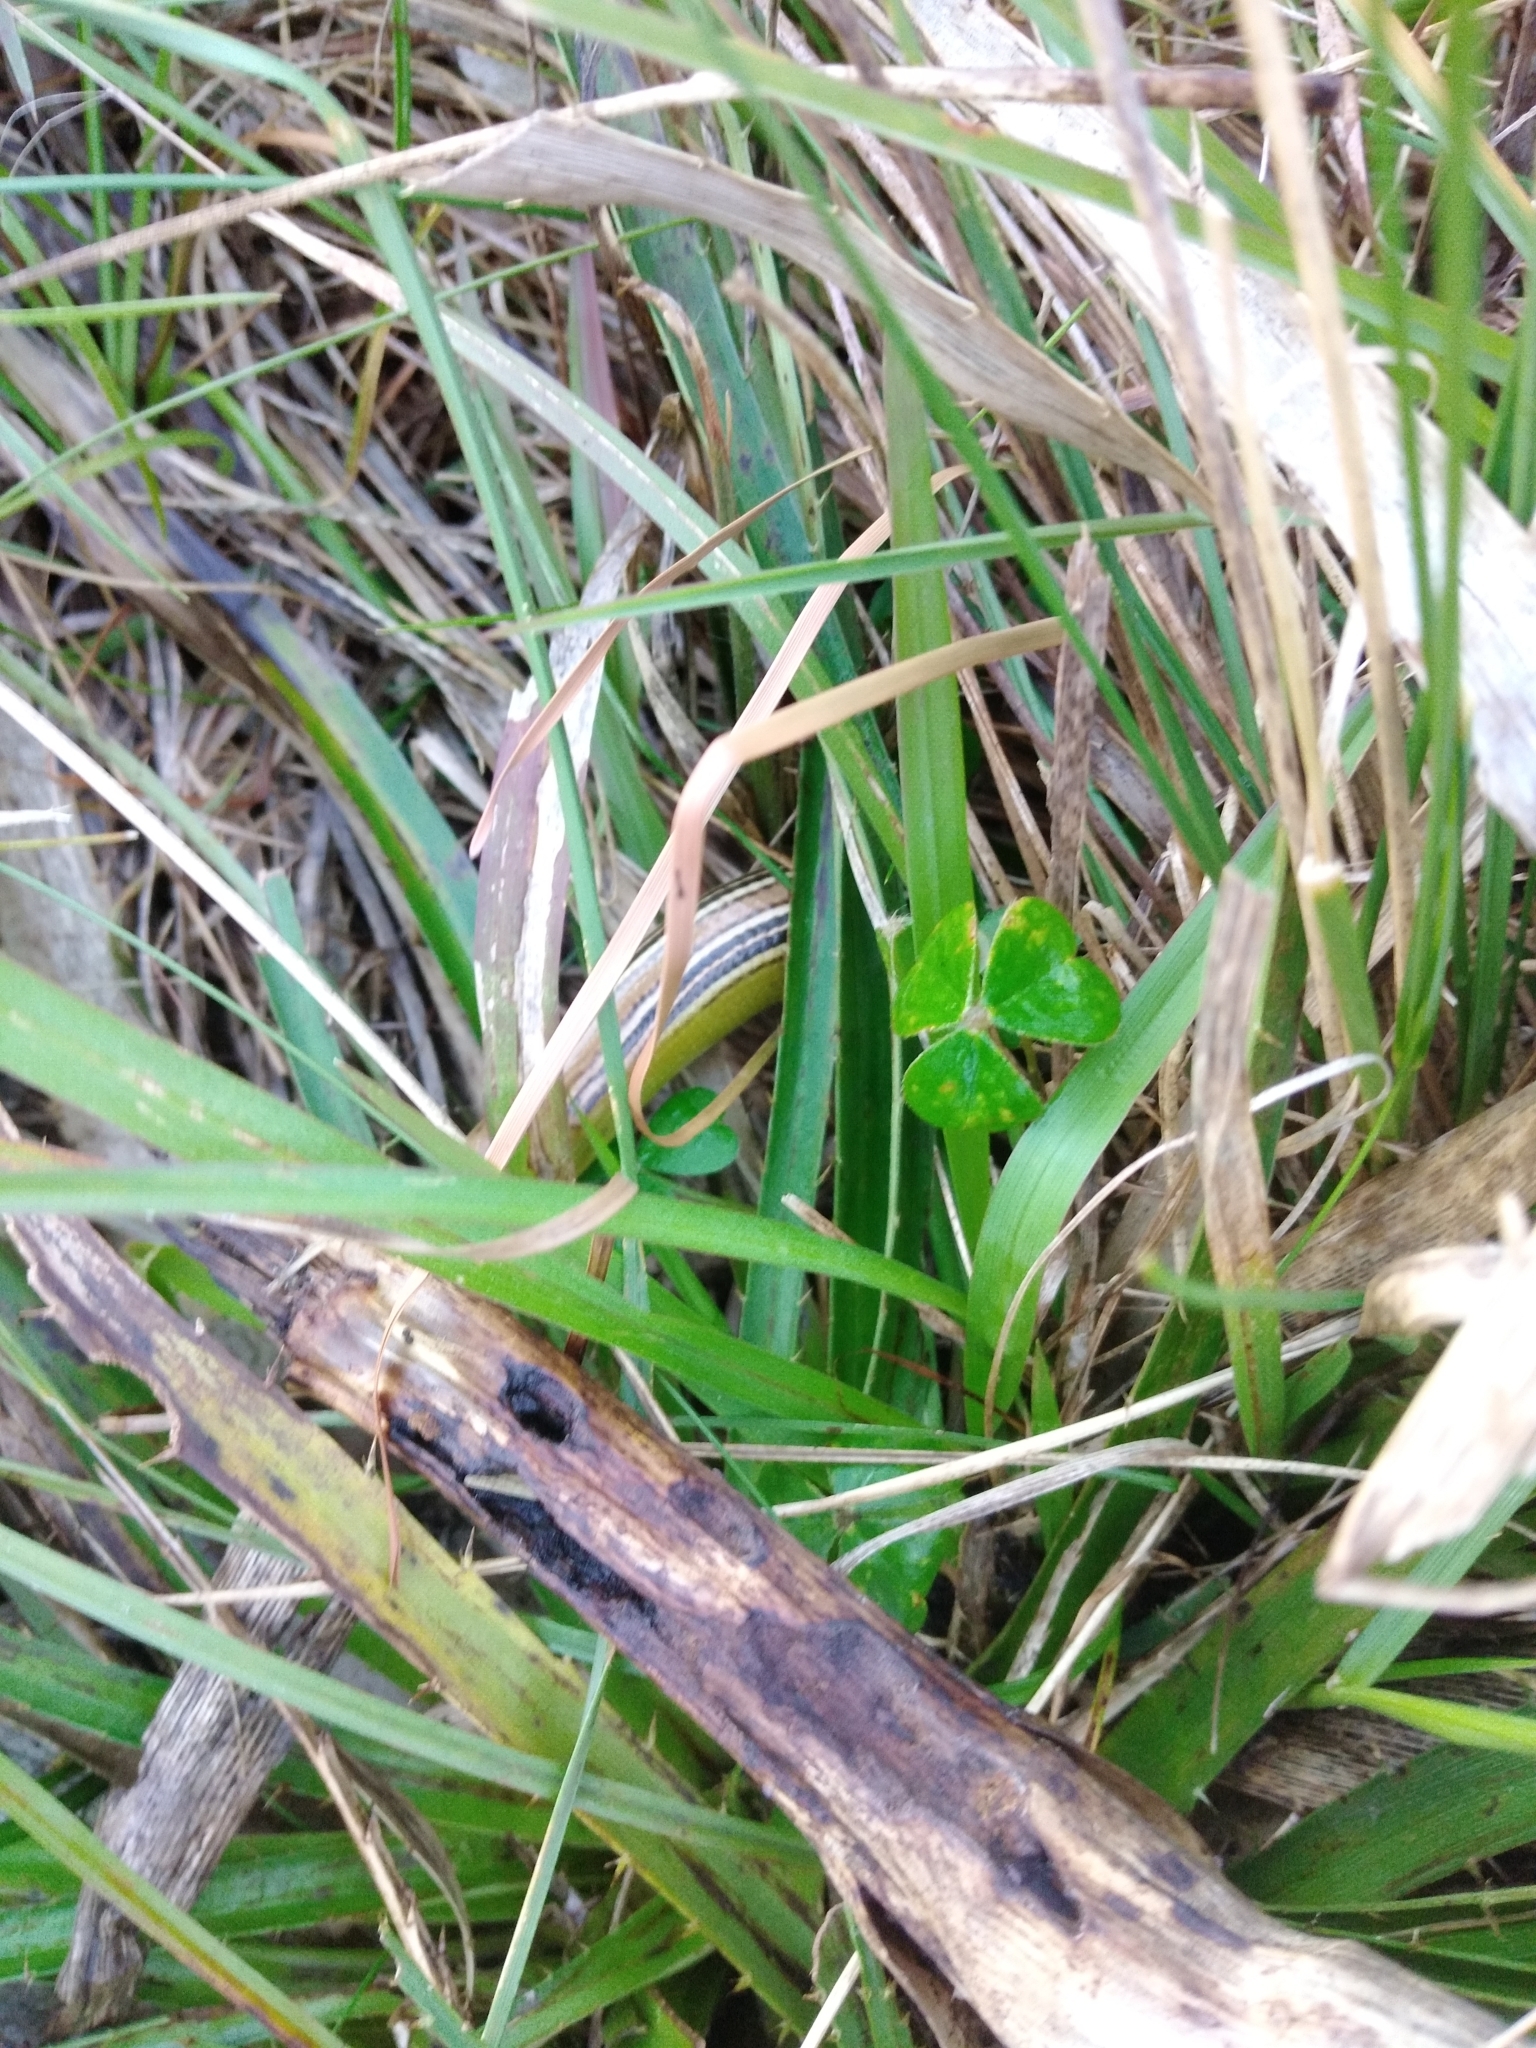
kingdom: Animalia
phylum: Chordata
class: Squamata
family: Diploglossidae
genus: Ophiodes
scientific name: Ophiodes striatus
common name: Striped worm lizard
